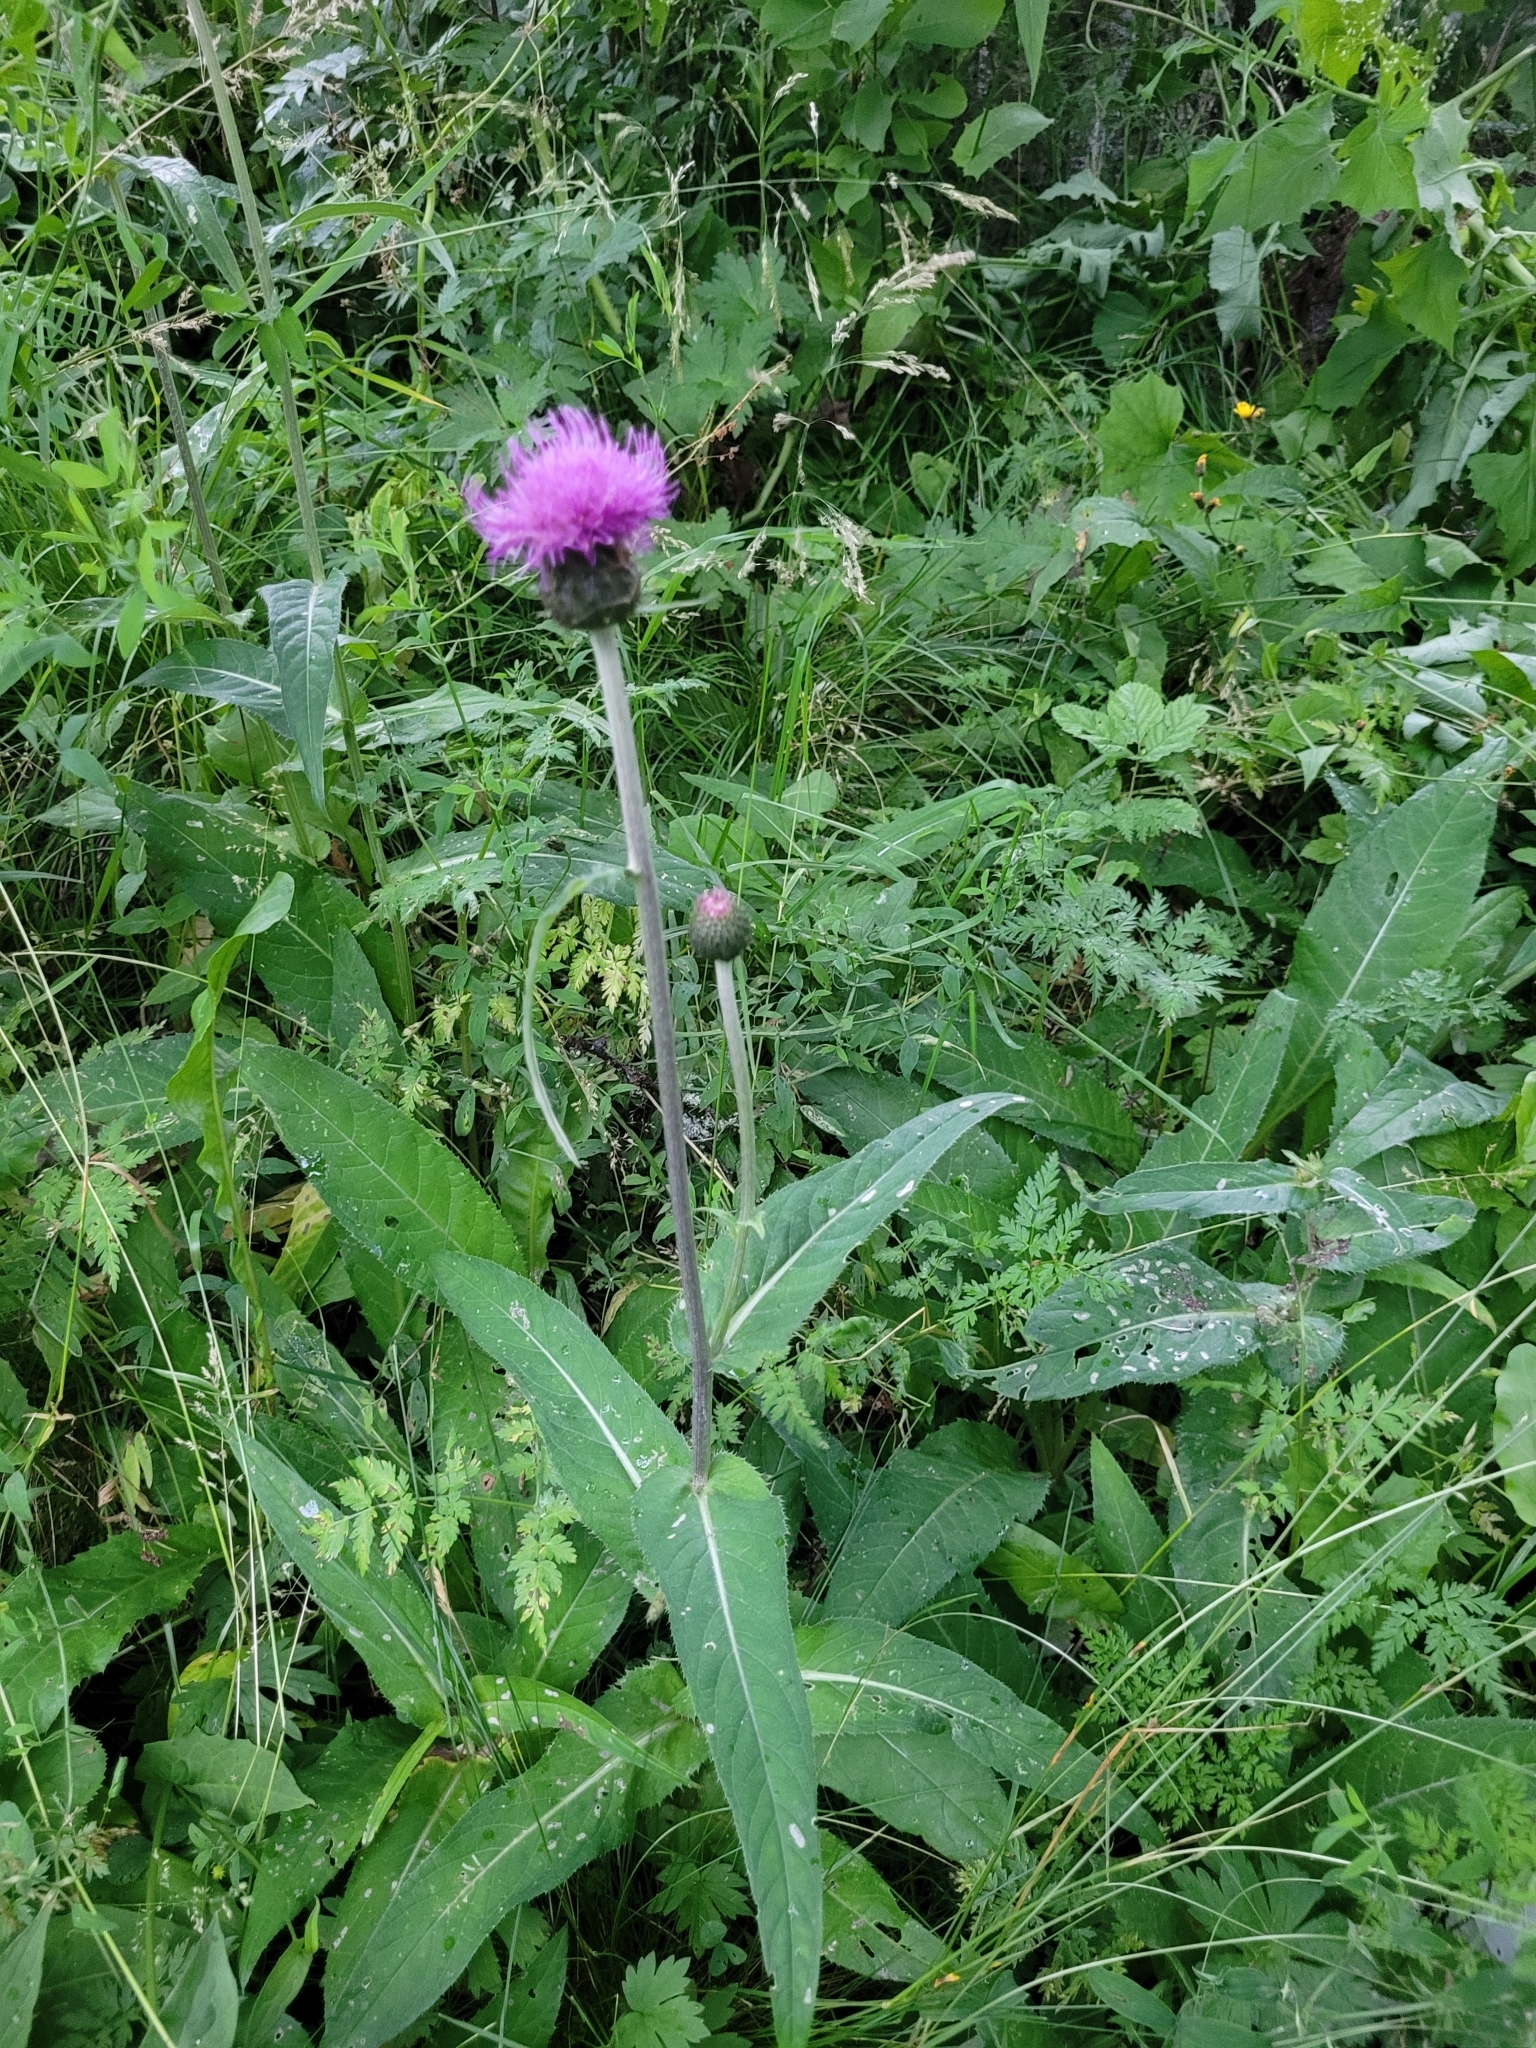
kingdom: Plantae
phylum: Tracheophyta
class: Magnoliopsida
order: Asterales
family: Asteraceae
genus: Cirsium
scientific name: Cirsium heterophyllum
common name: Melancholy thistle
